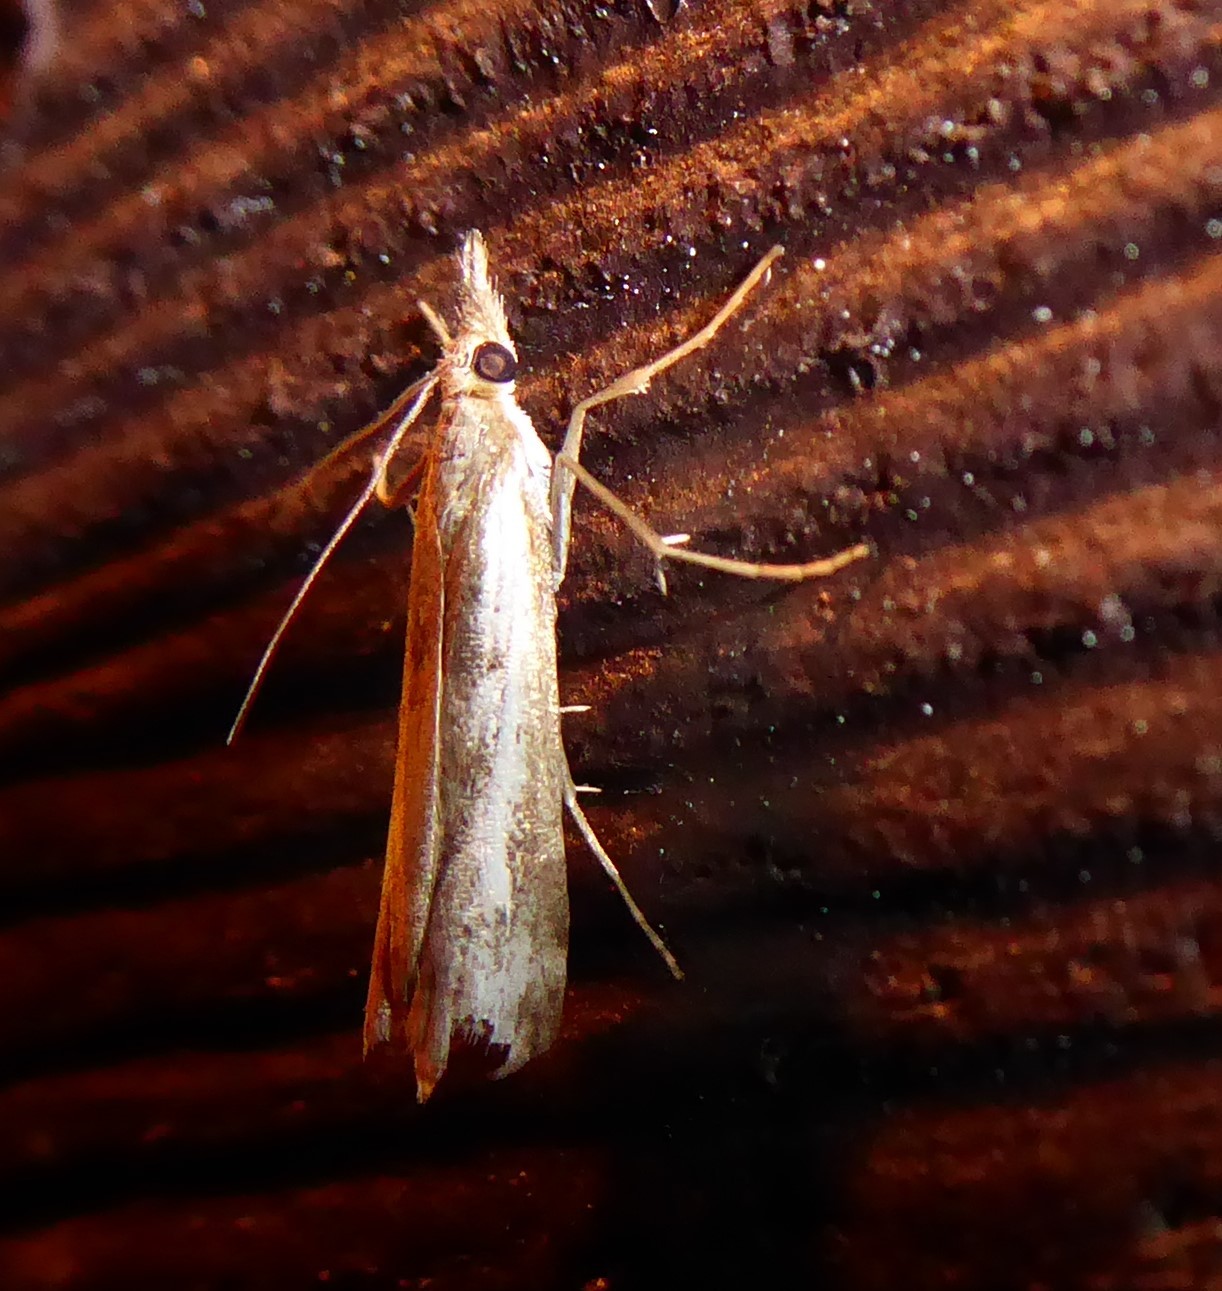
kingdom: Animalia
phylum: Arthropoda
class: Insecta
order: Lepidoptera
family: Crambidae
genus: Orocrambus
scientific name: Orocrambus vulgaris
